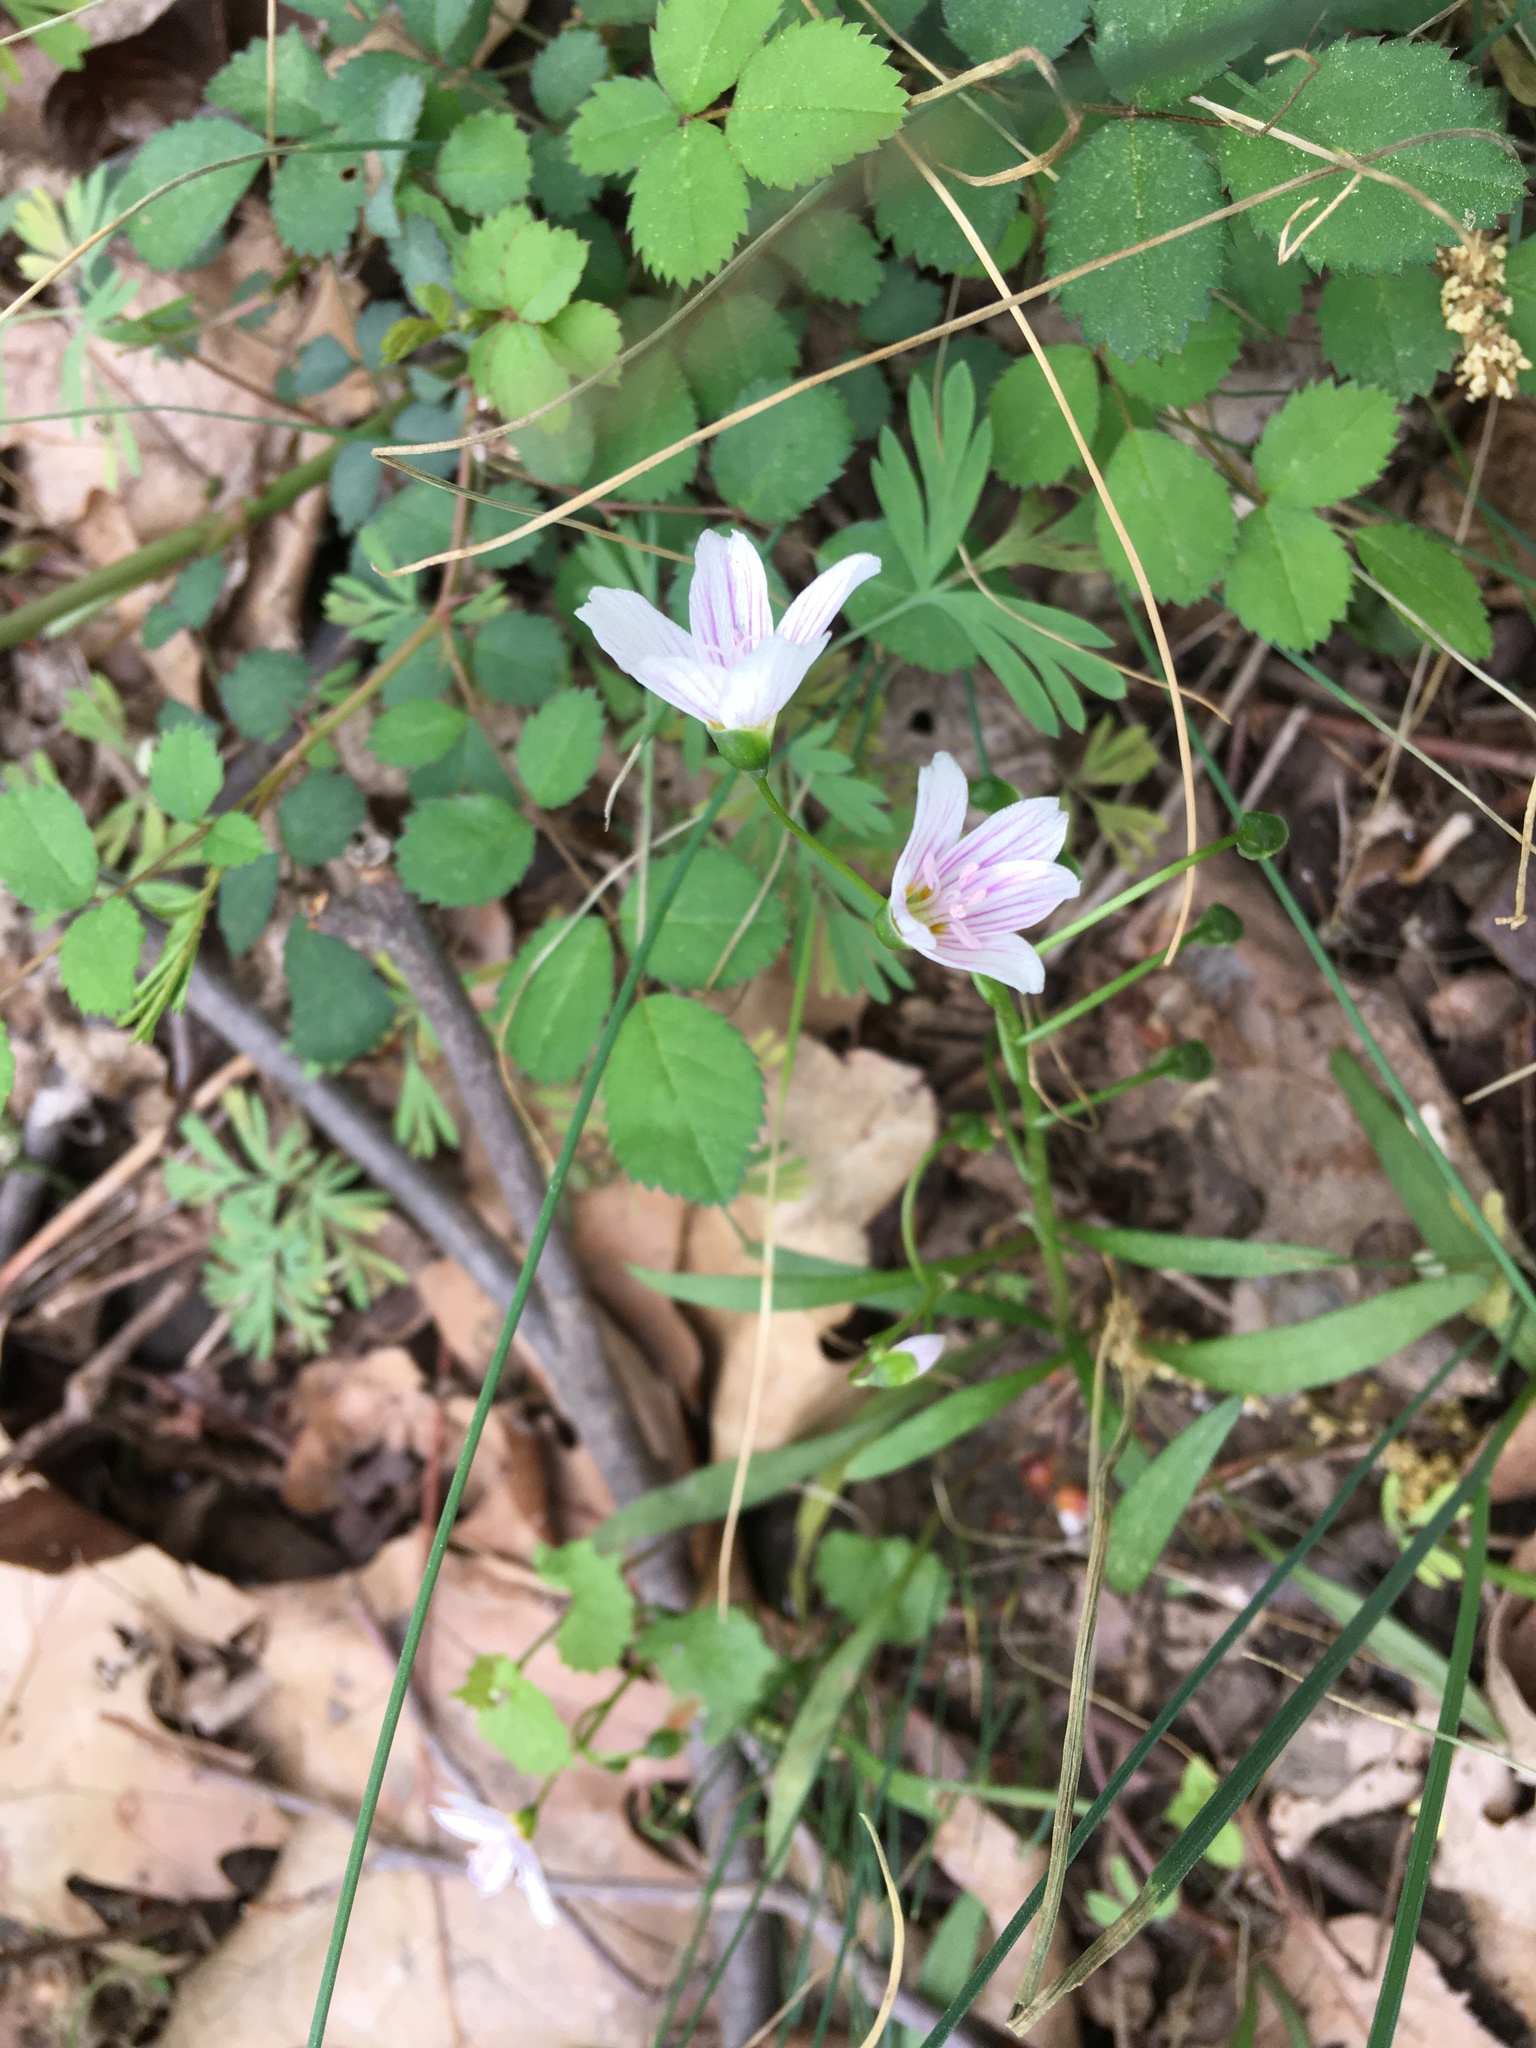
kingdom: Plantae
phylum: Tracheophyta
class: Magnoliopsida
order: Caryophyllales
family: Montiaceae
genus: Claytonia
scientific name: Claytonia virginica
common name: Virginia springbeauty
